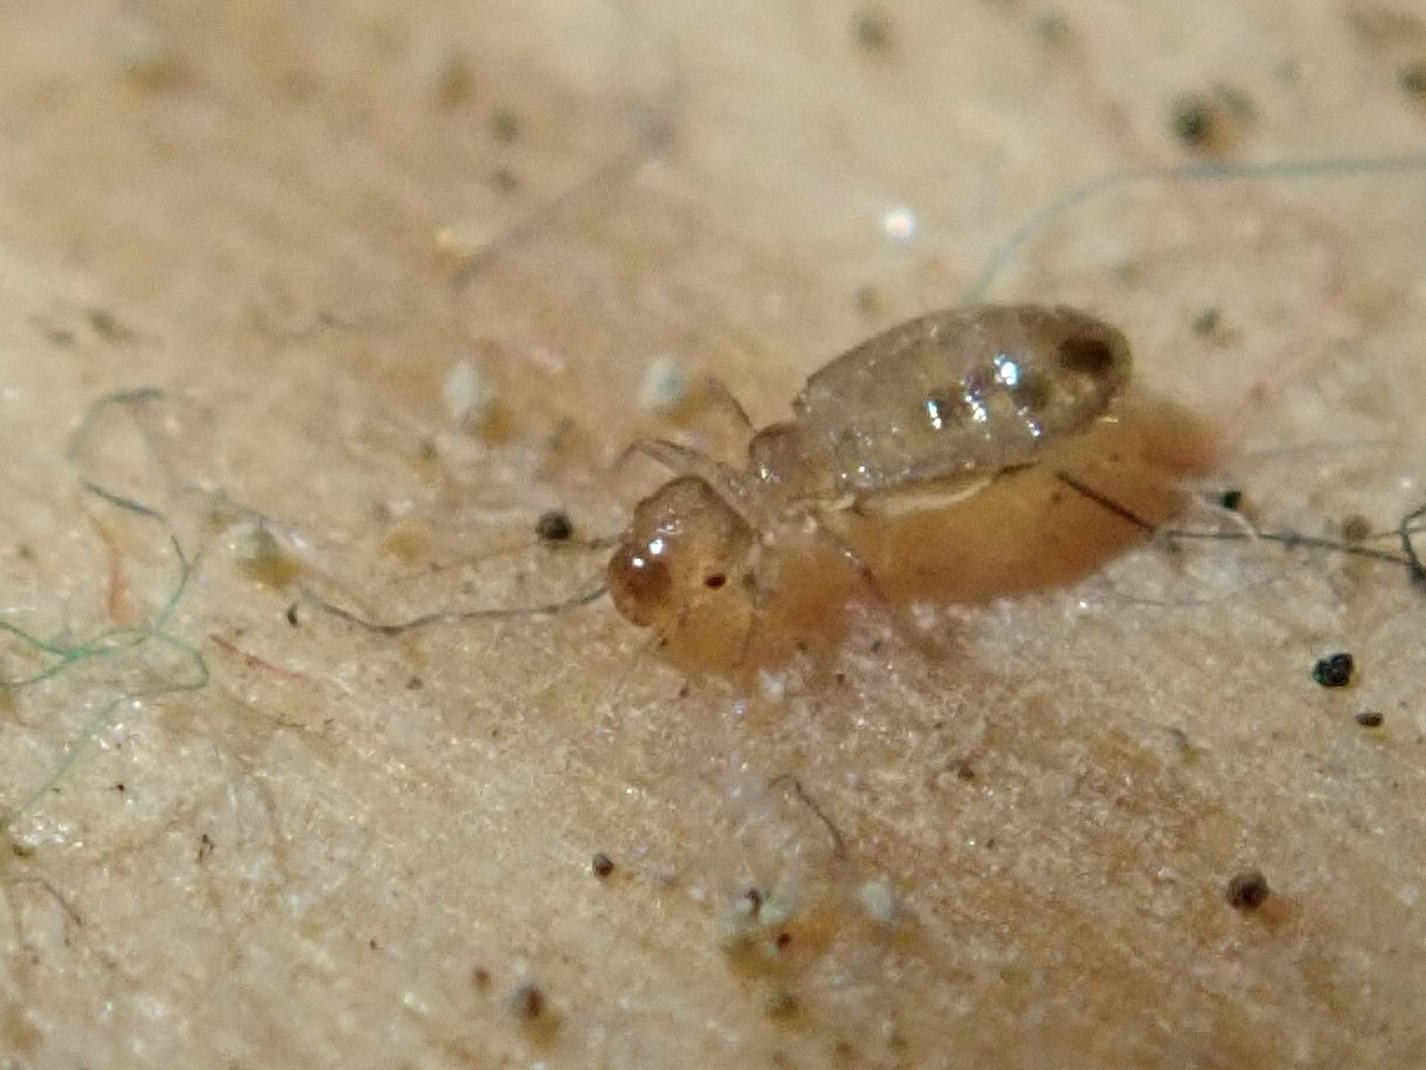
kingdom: Animalia
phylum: Arthropoda
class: Insecta
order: Psocodea
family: Liposcelididae
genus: Liposcelis
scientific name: Liposcelis bostrychophila
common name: Bark lice
